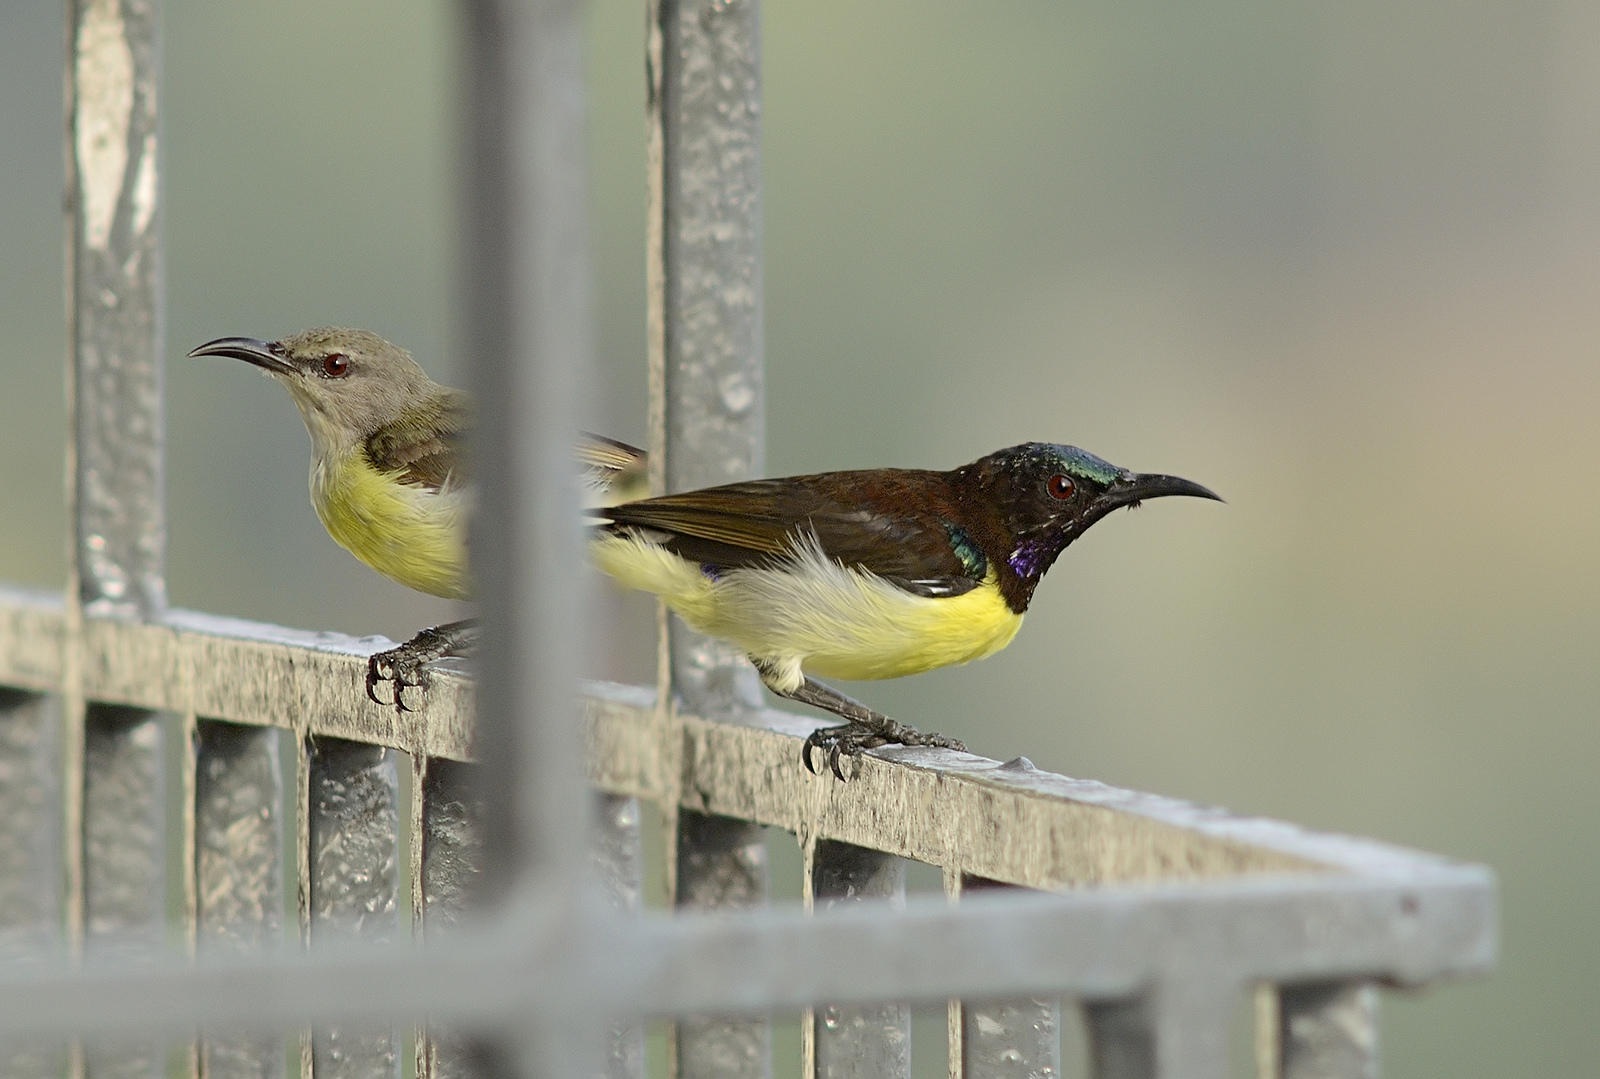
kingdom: Animalia
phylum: Chordata
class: Aves
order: Passeriformes
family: Nectariniidae
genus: Leptocoma
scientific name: Leptocoma zeylonica
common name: Purple-rumped sunbird
